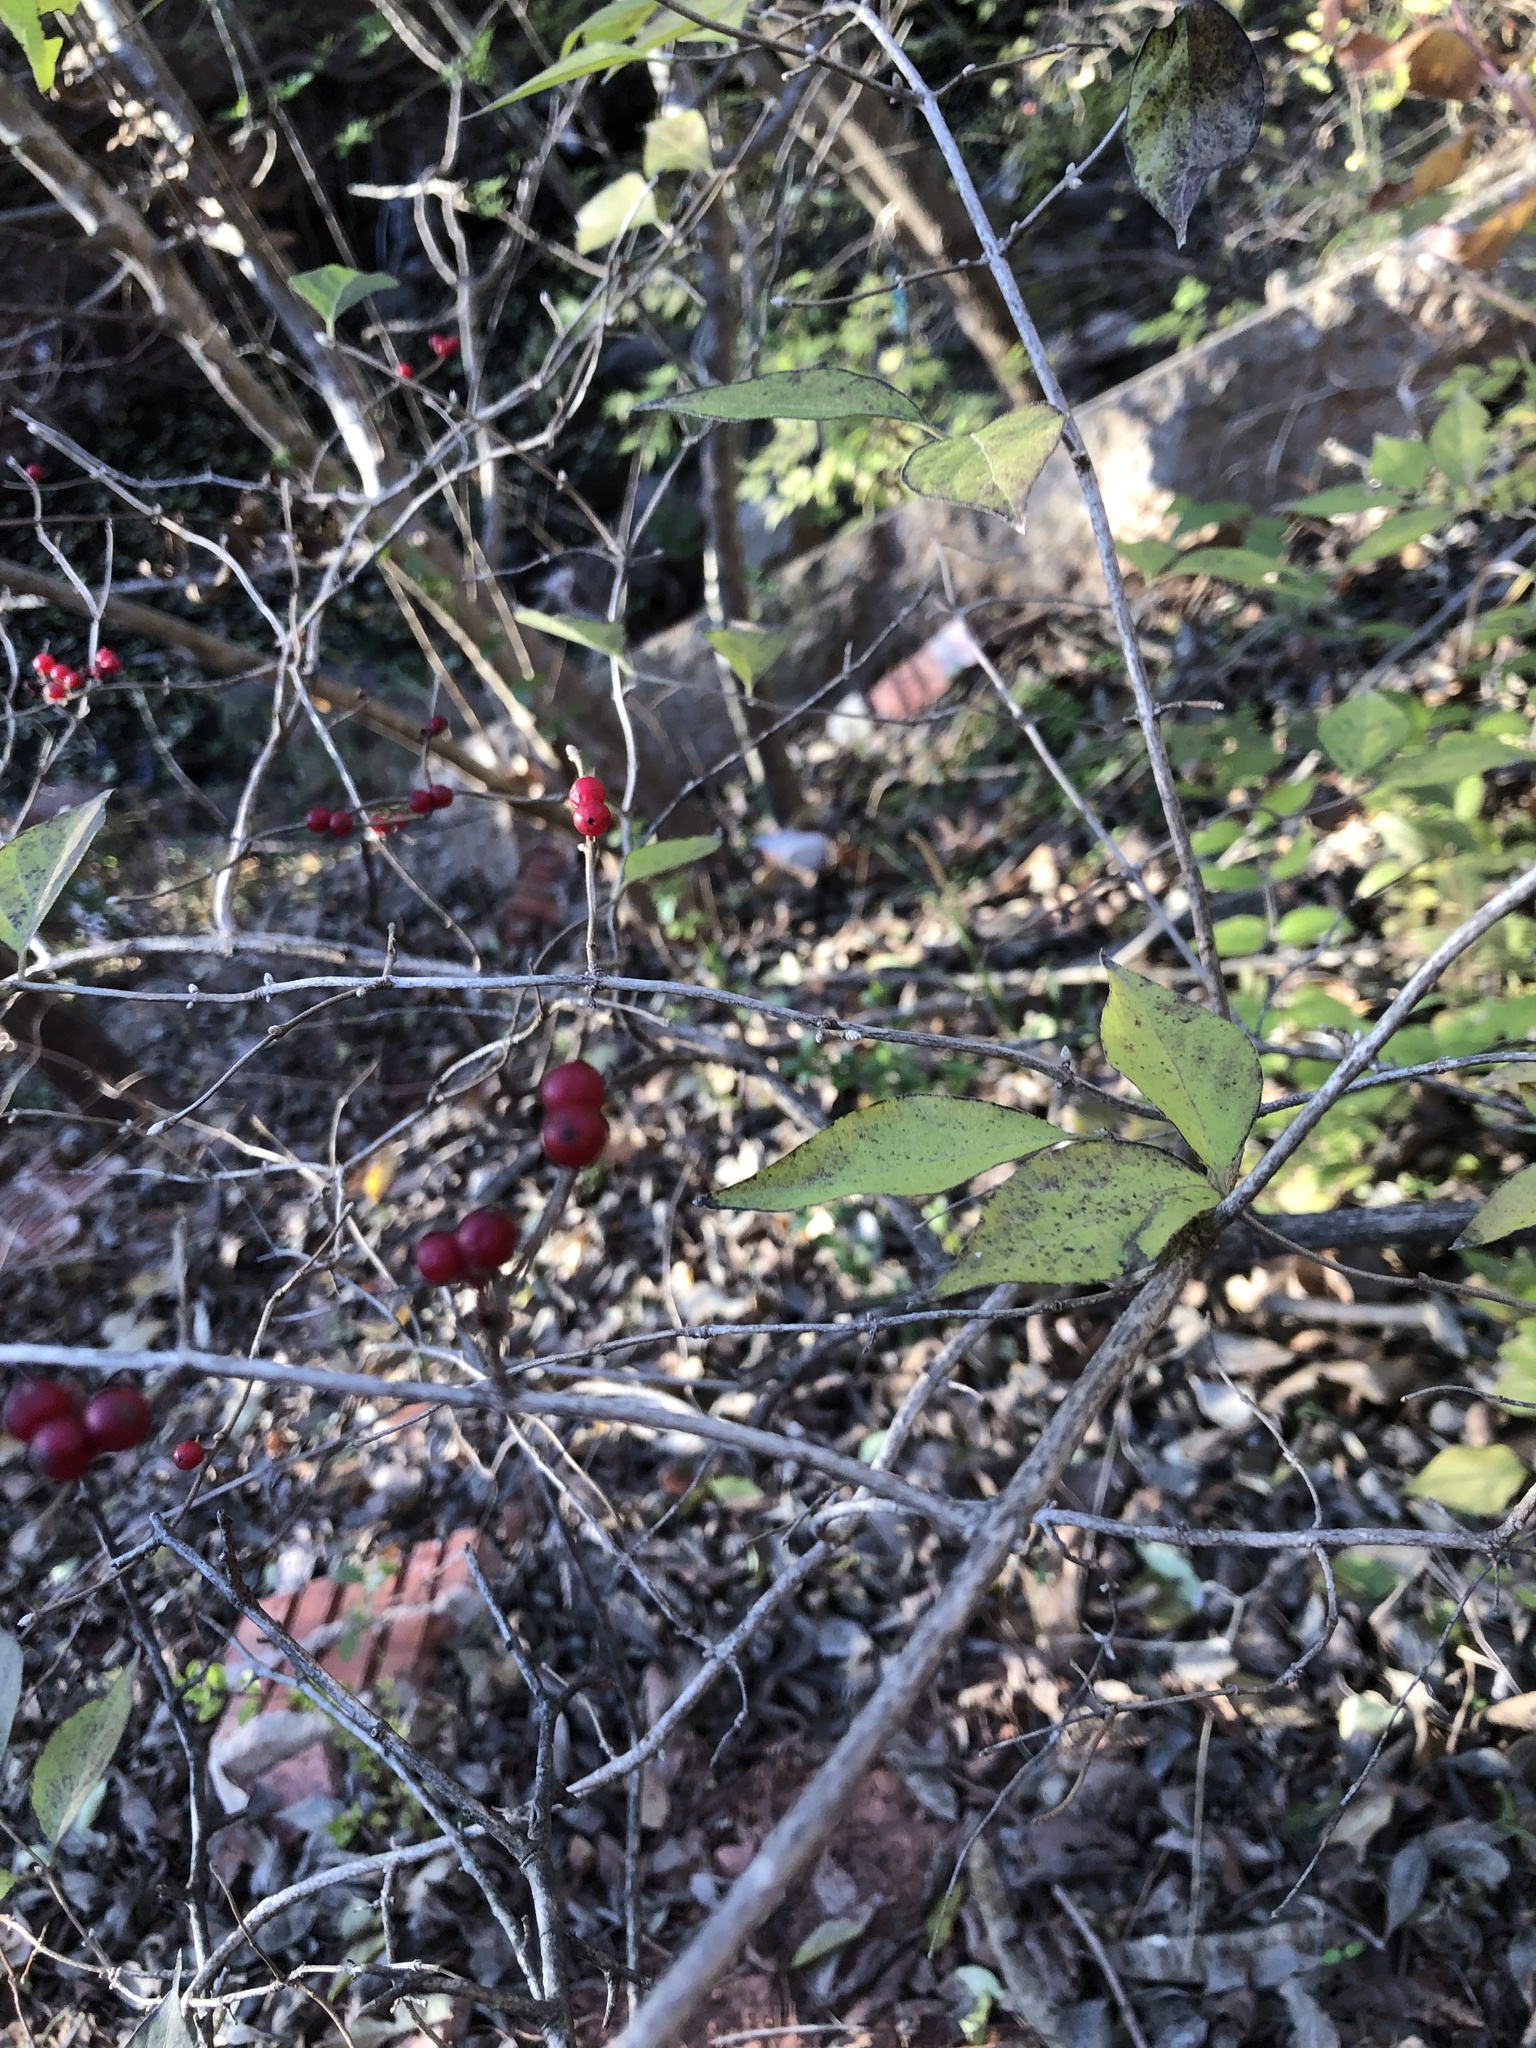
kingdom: Plantae
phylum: Tracheophyta
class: Magnoliopsida
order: Dipsacales
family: Caprifoliaceae
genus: Lonicera
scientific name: Lonicera maackii
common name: Amur honeysuckle
